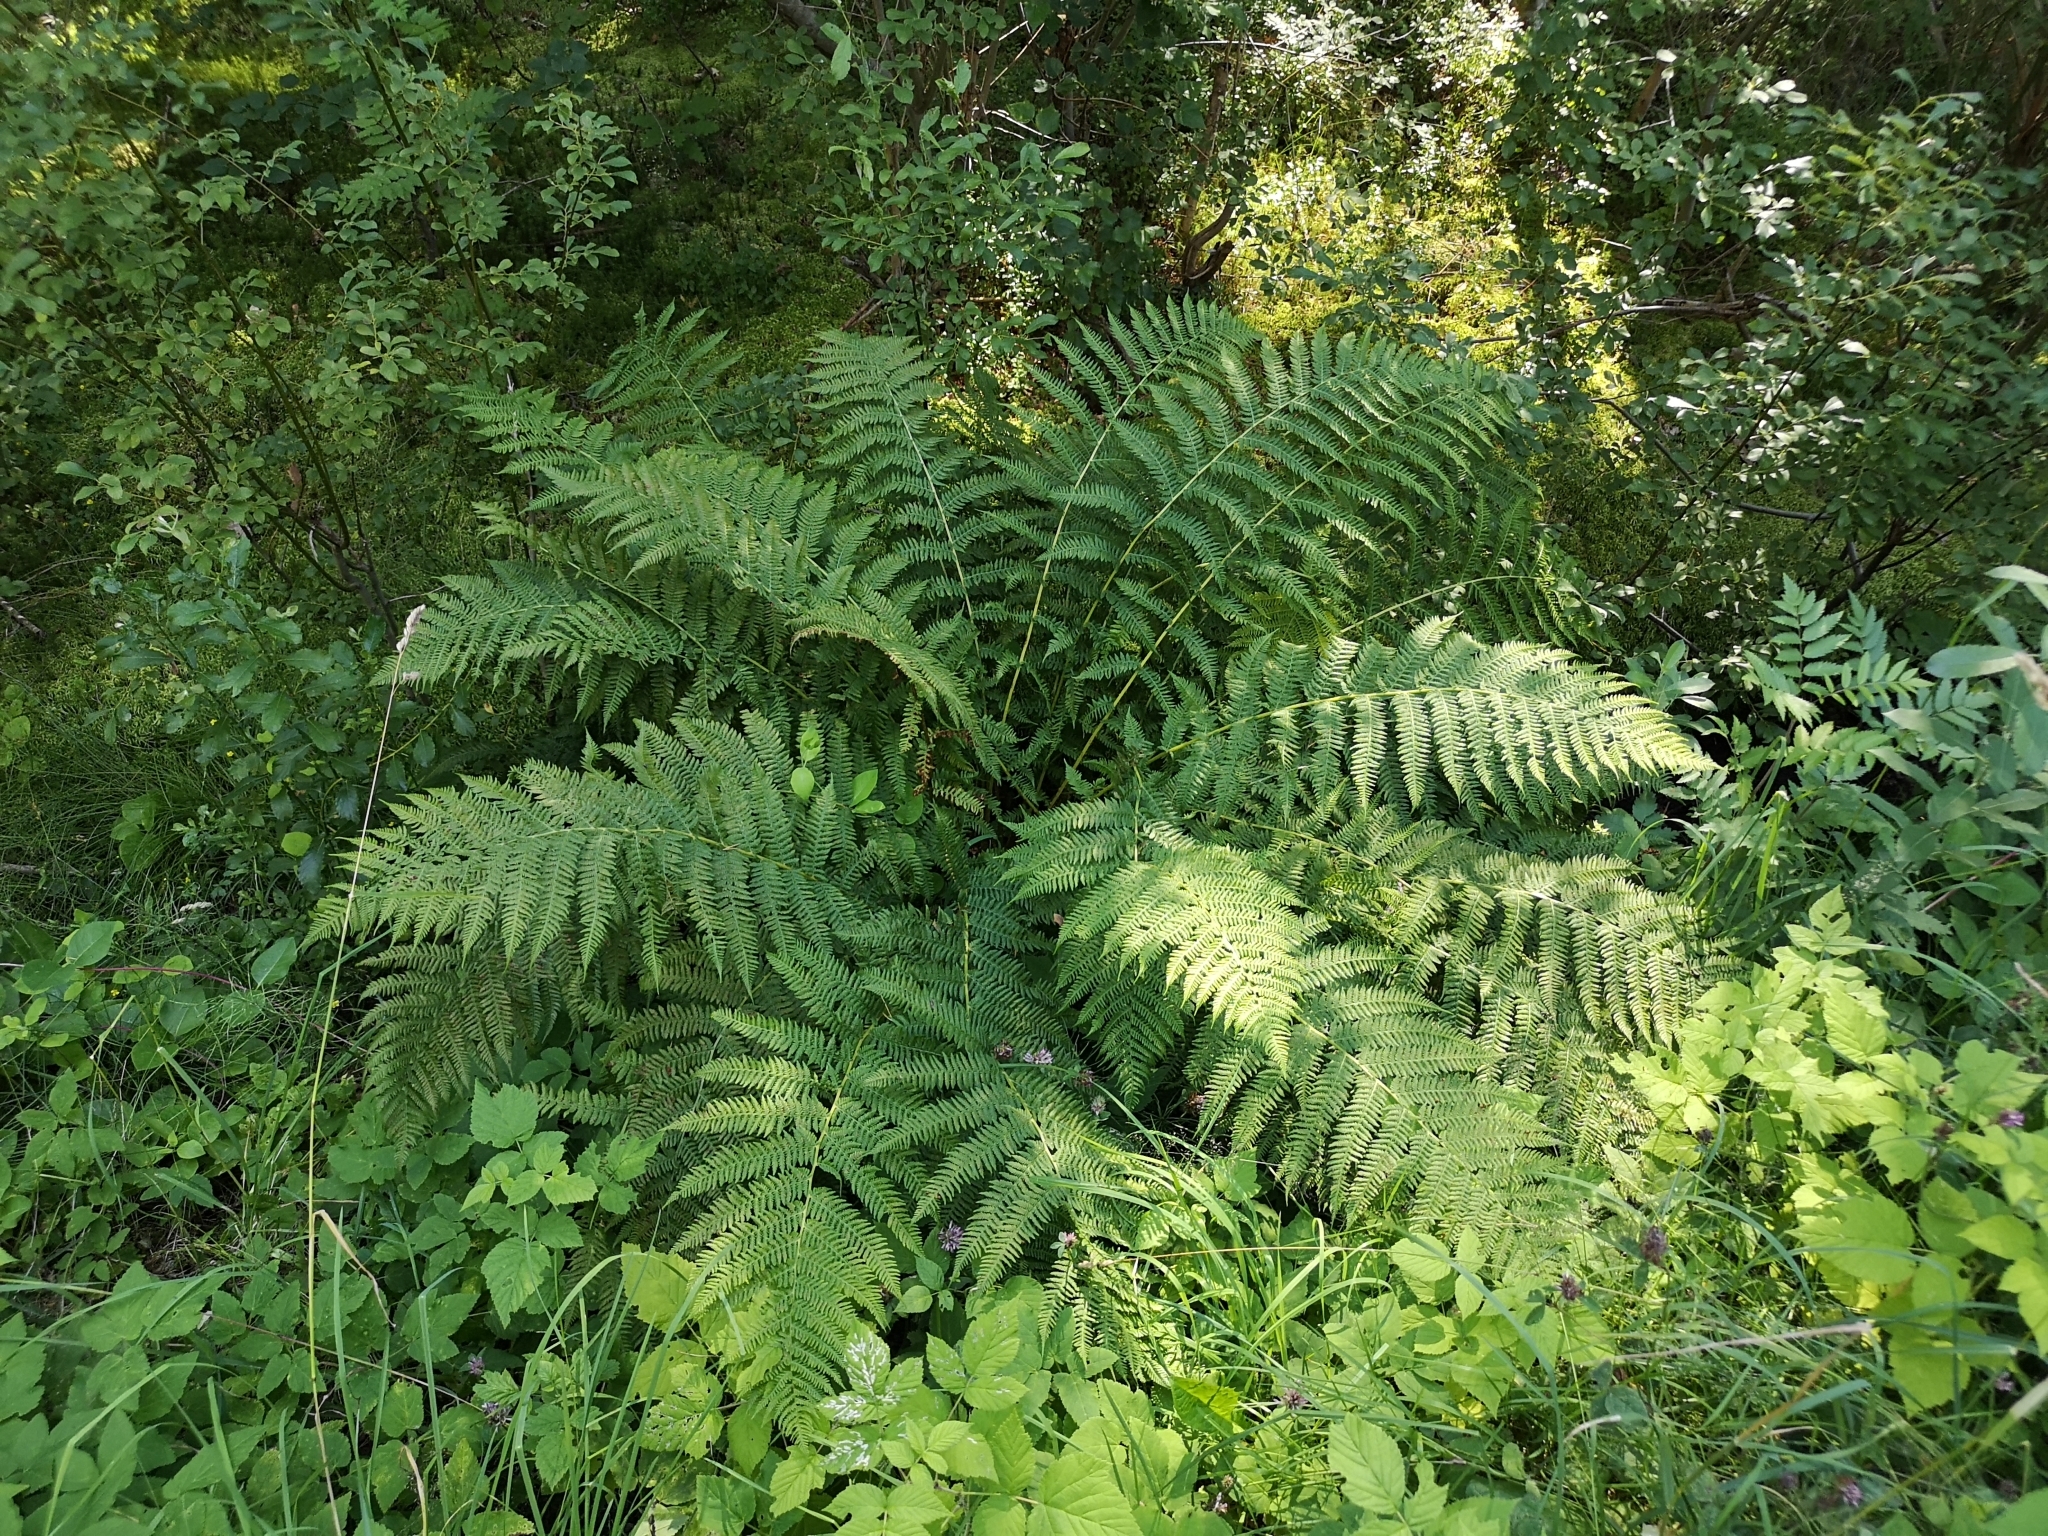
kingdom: Plantae
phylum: Tracheophyta
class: Polypodiopsida
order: Polypodiales
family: Athyriaceae
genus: Athyrium
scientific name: Athyrium filix-femina
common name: Lady fern
